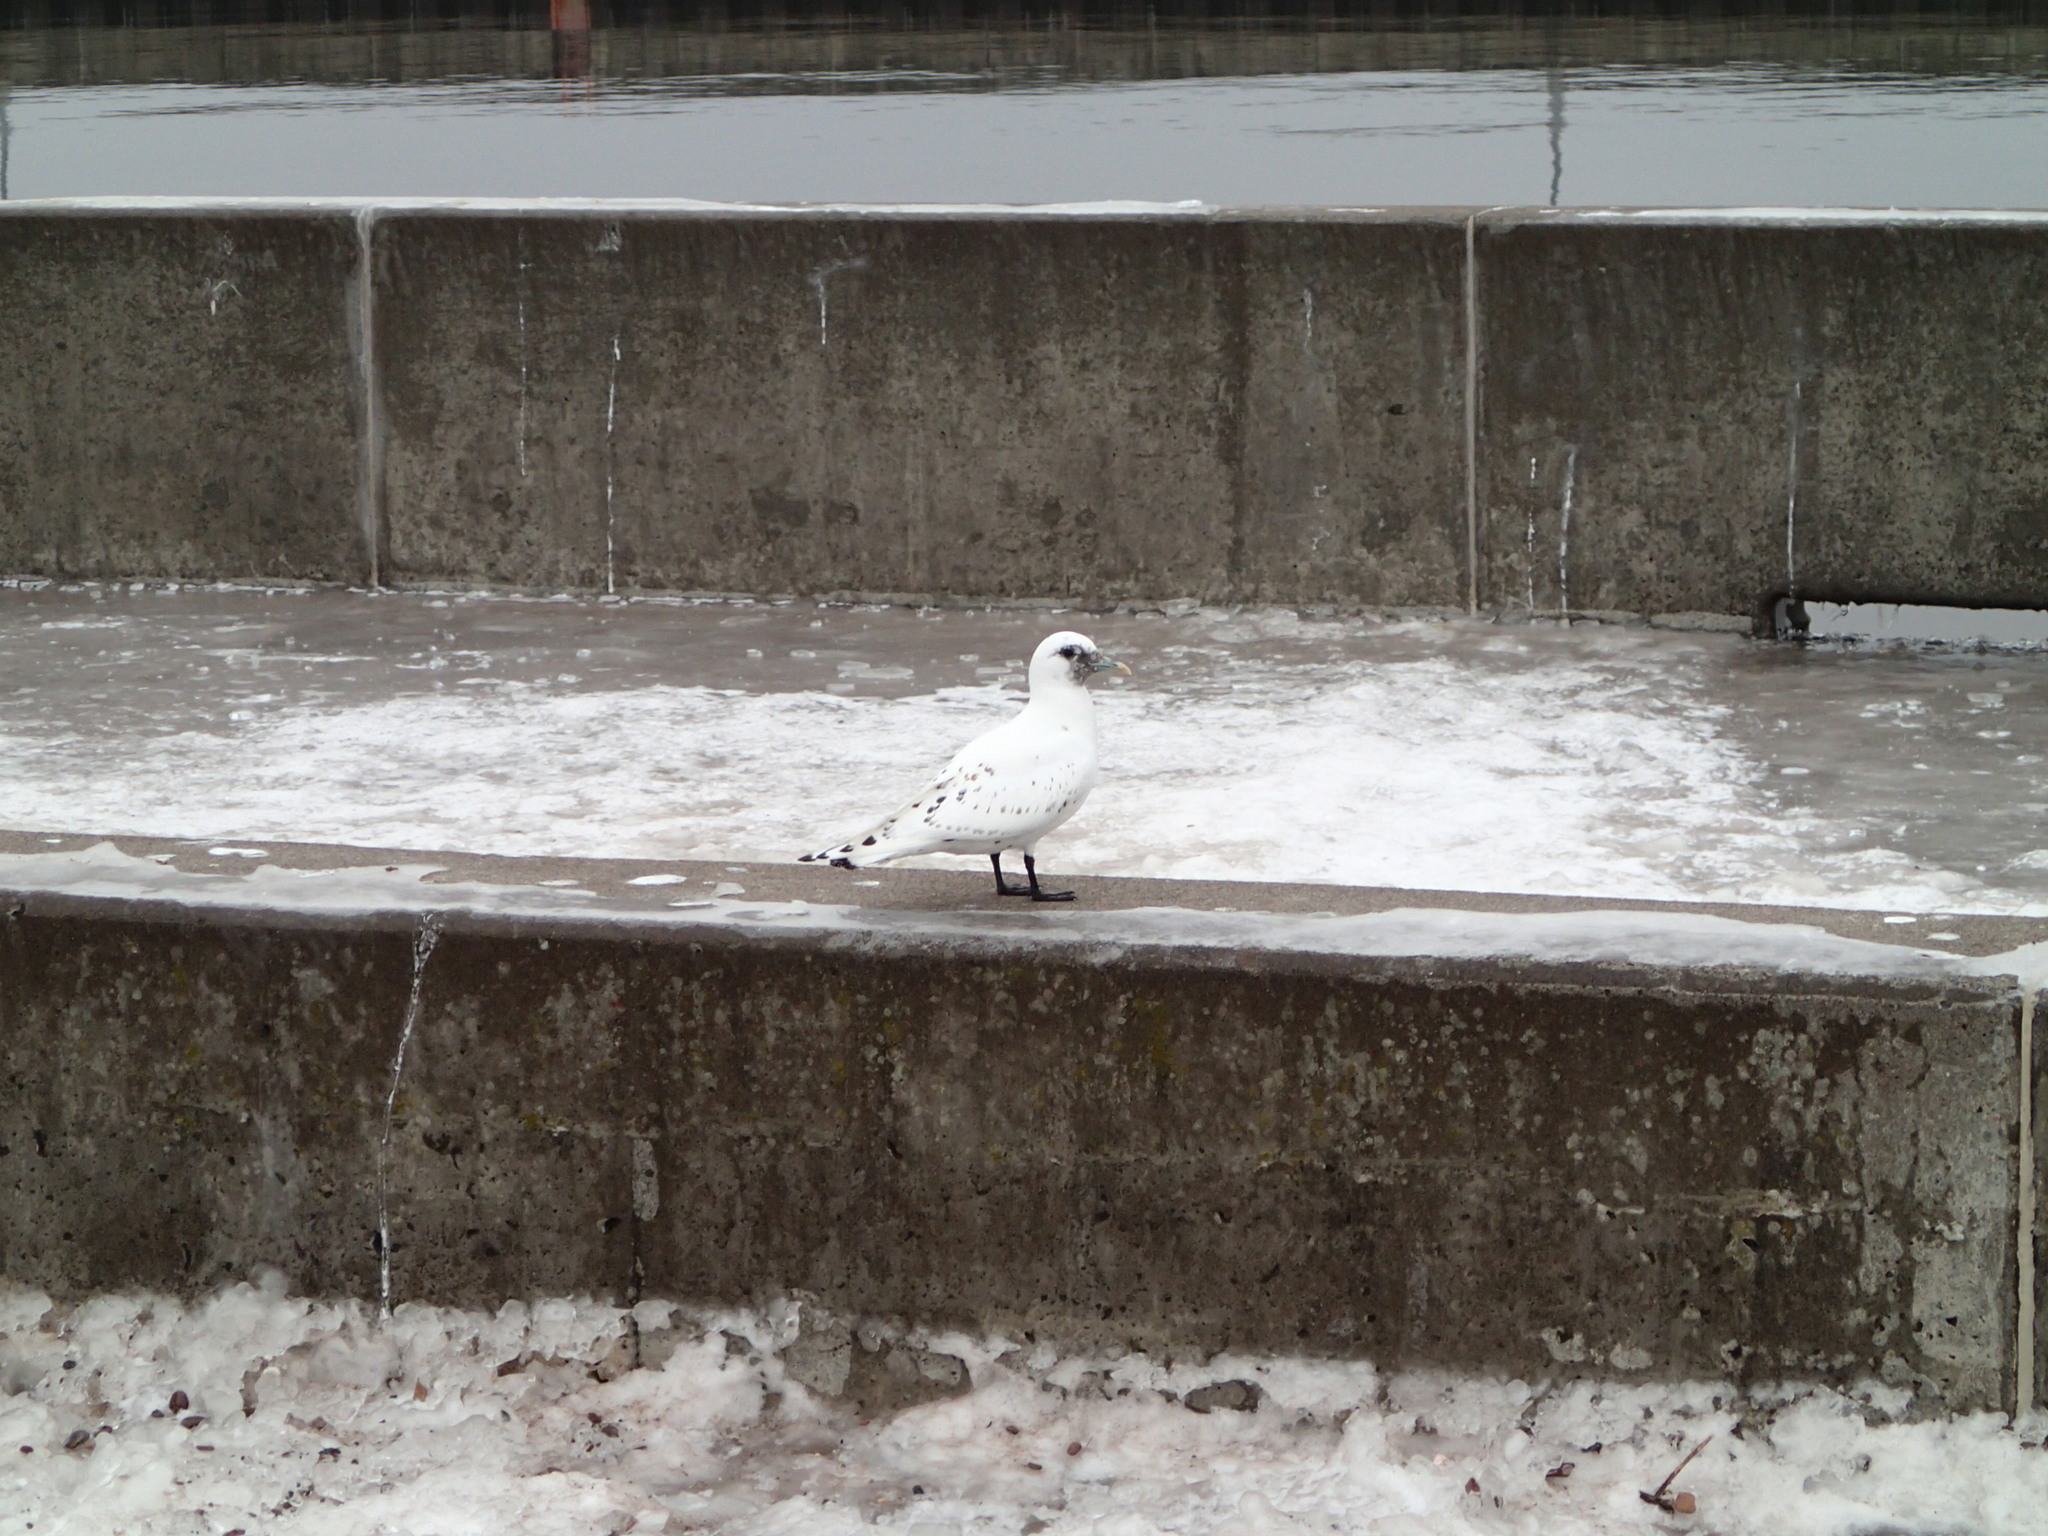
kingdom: Animalia
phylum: Chordata
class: Aves
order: Charadriiformes
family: Laridae
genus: Pagophila
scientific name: Pagophila eburnea
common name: Ivory gull
